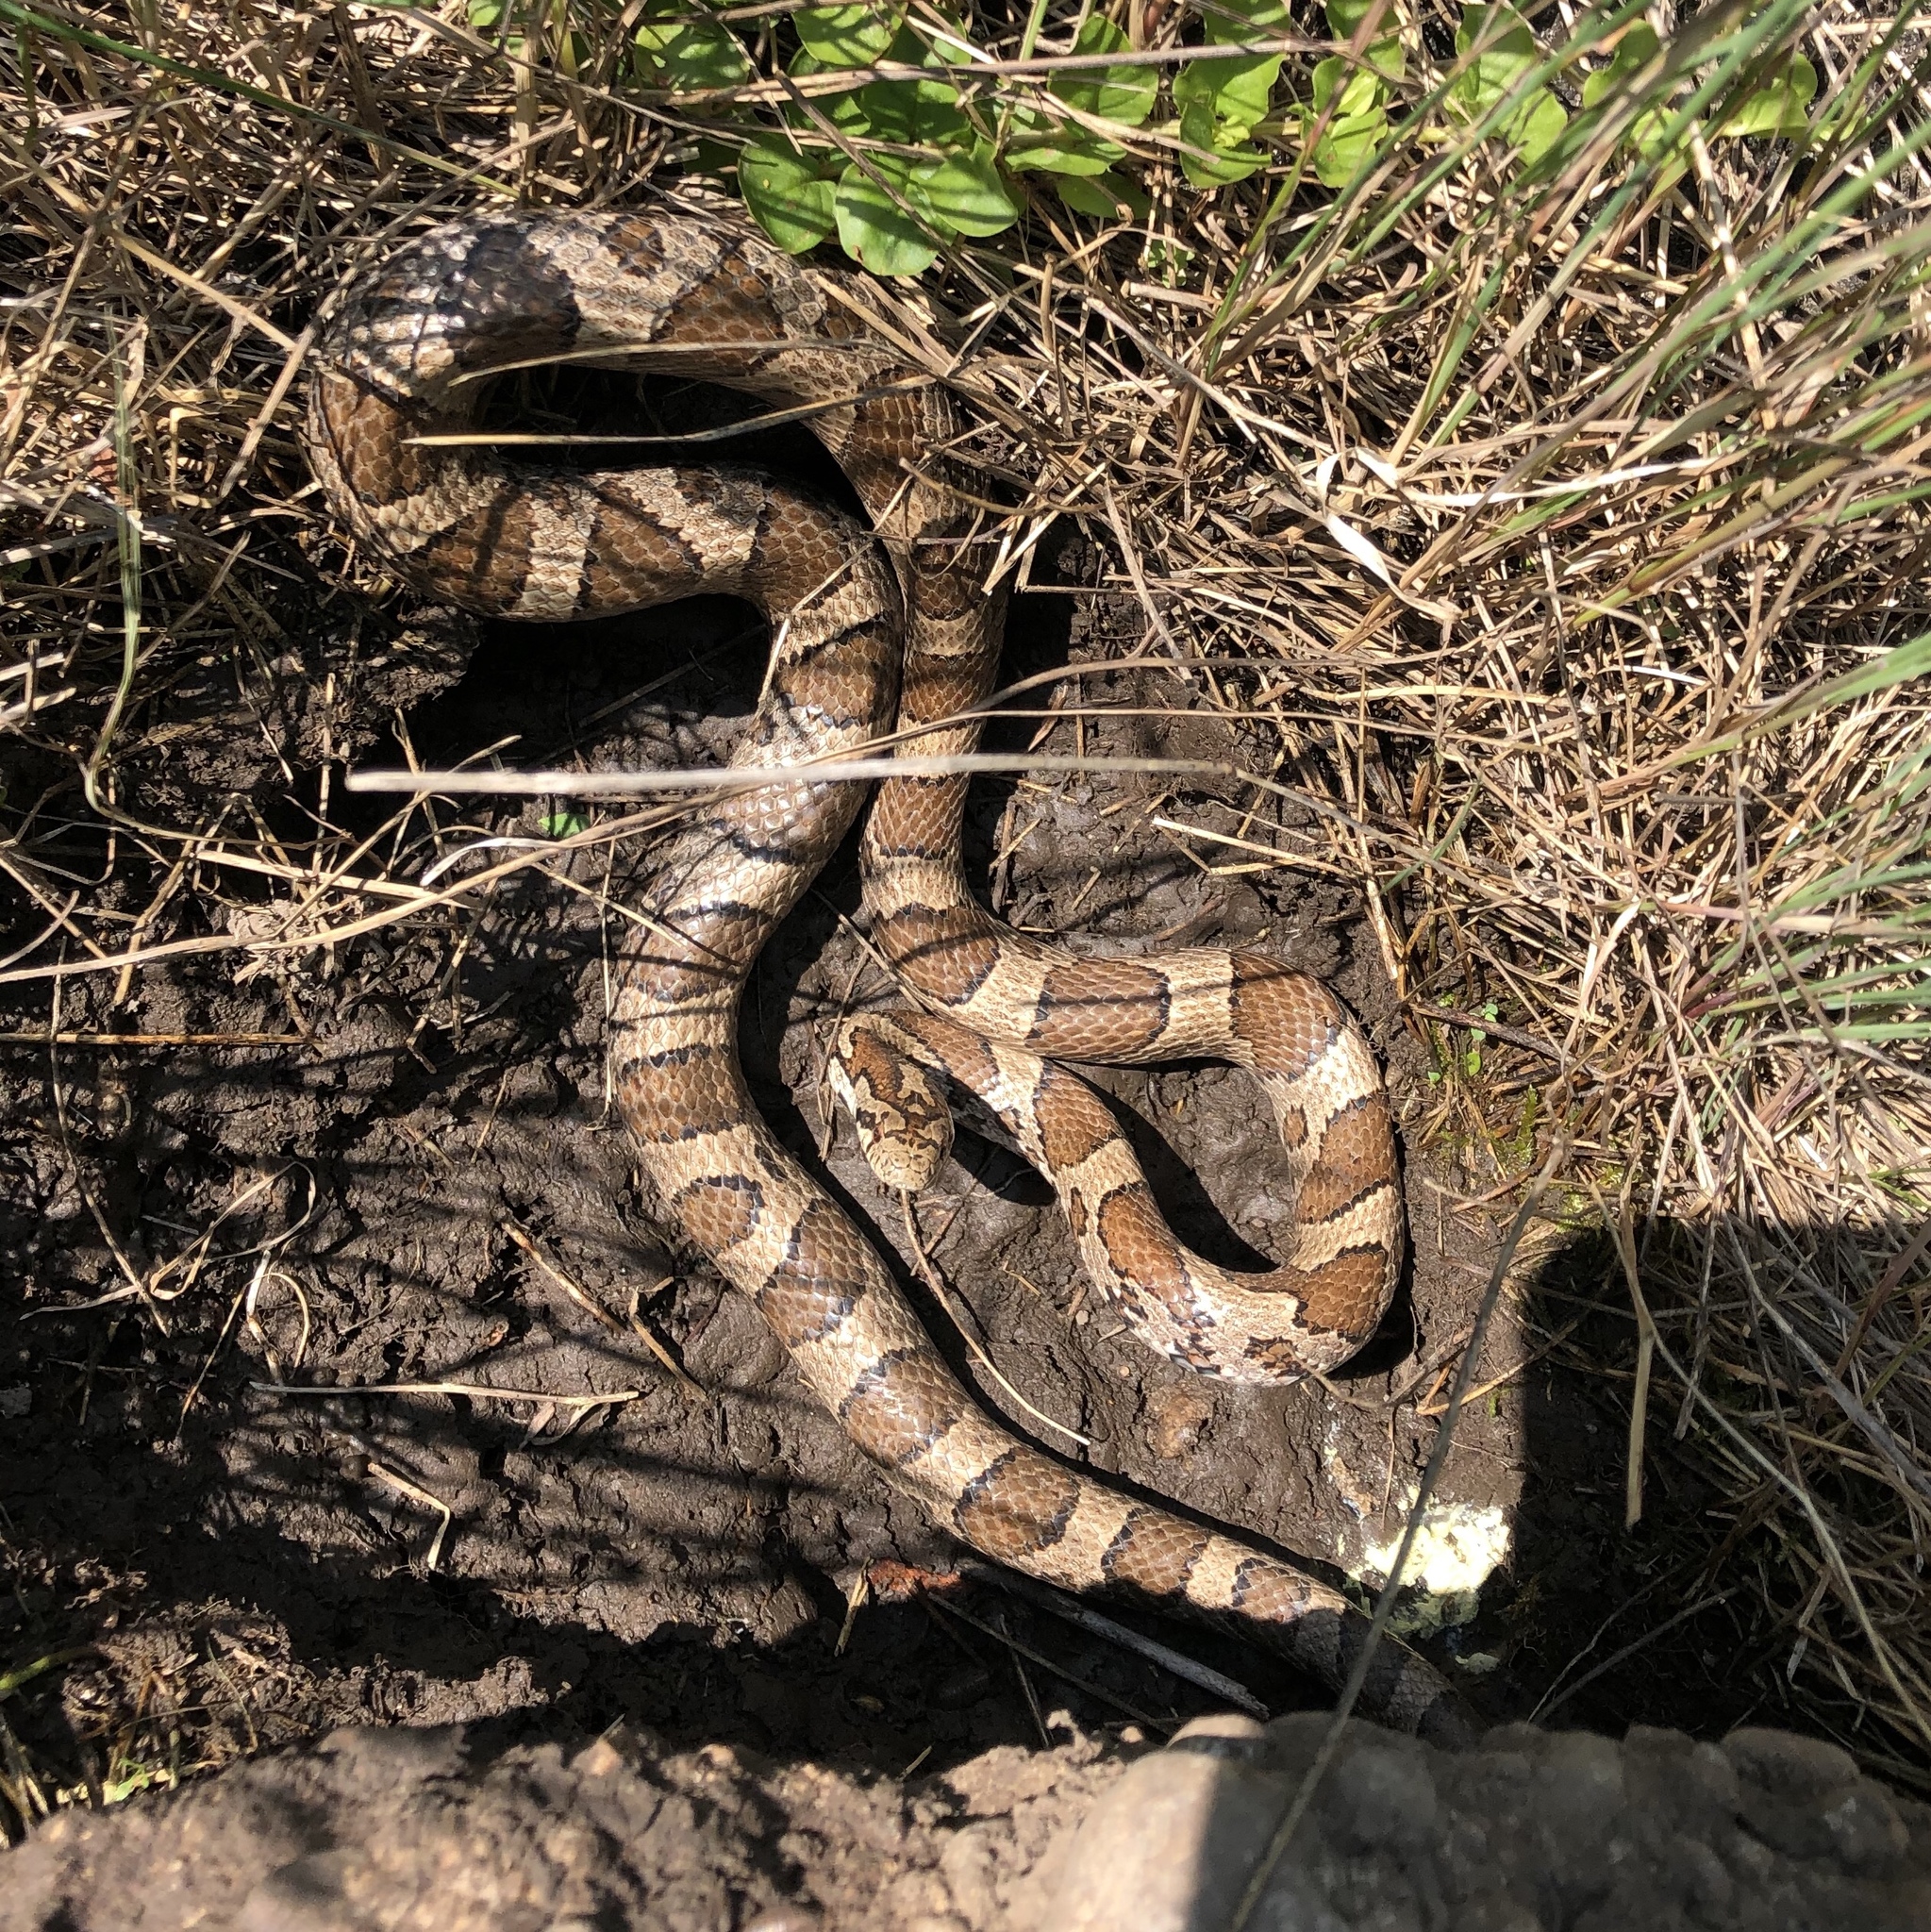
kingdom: Animalia
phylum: Chordata
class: Squamata
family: Colubridae
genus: Lampropeltis
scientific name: Lampropeltis triangulum
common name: Eastern milksnake
